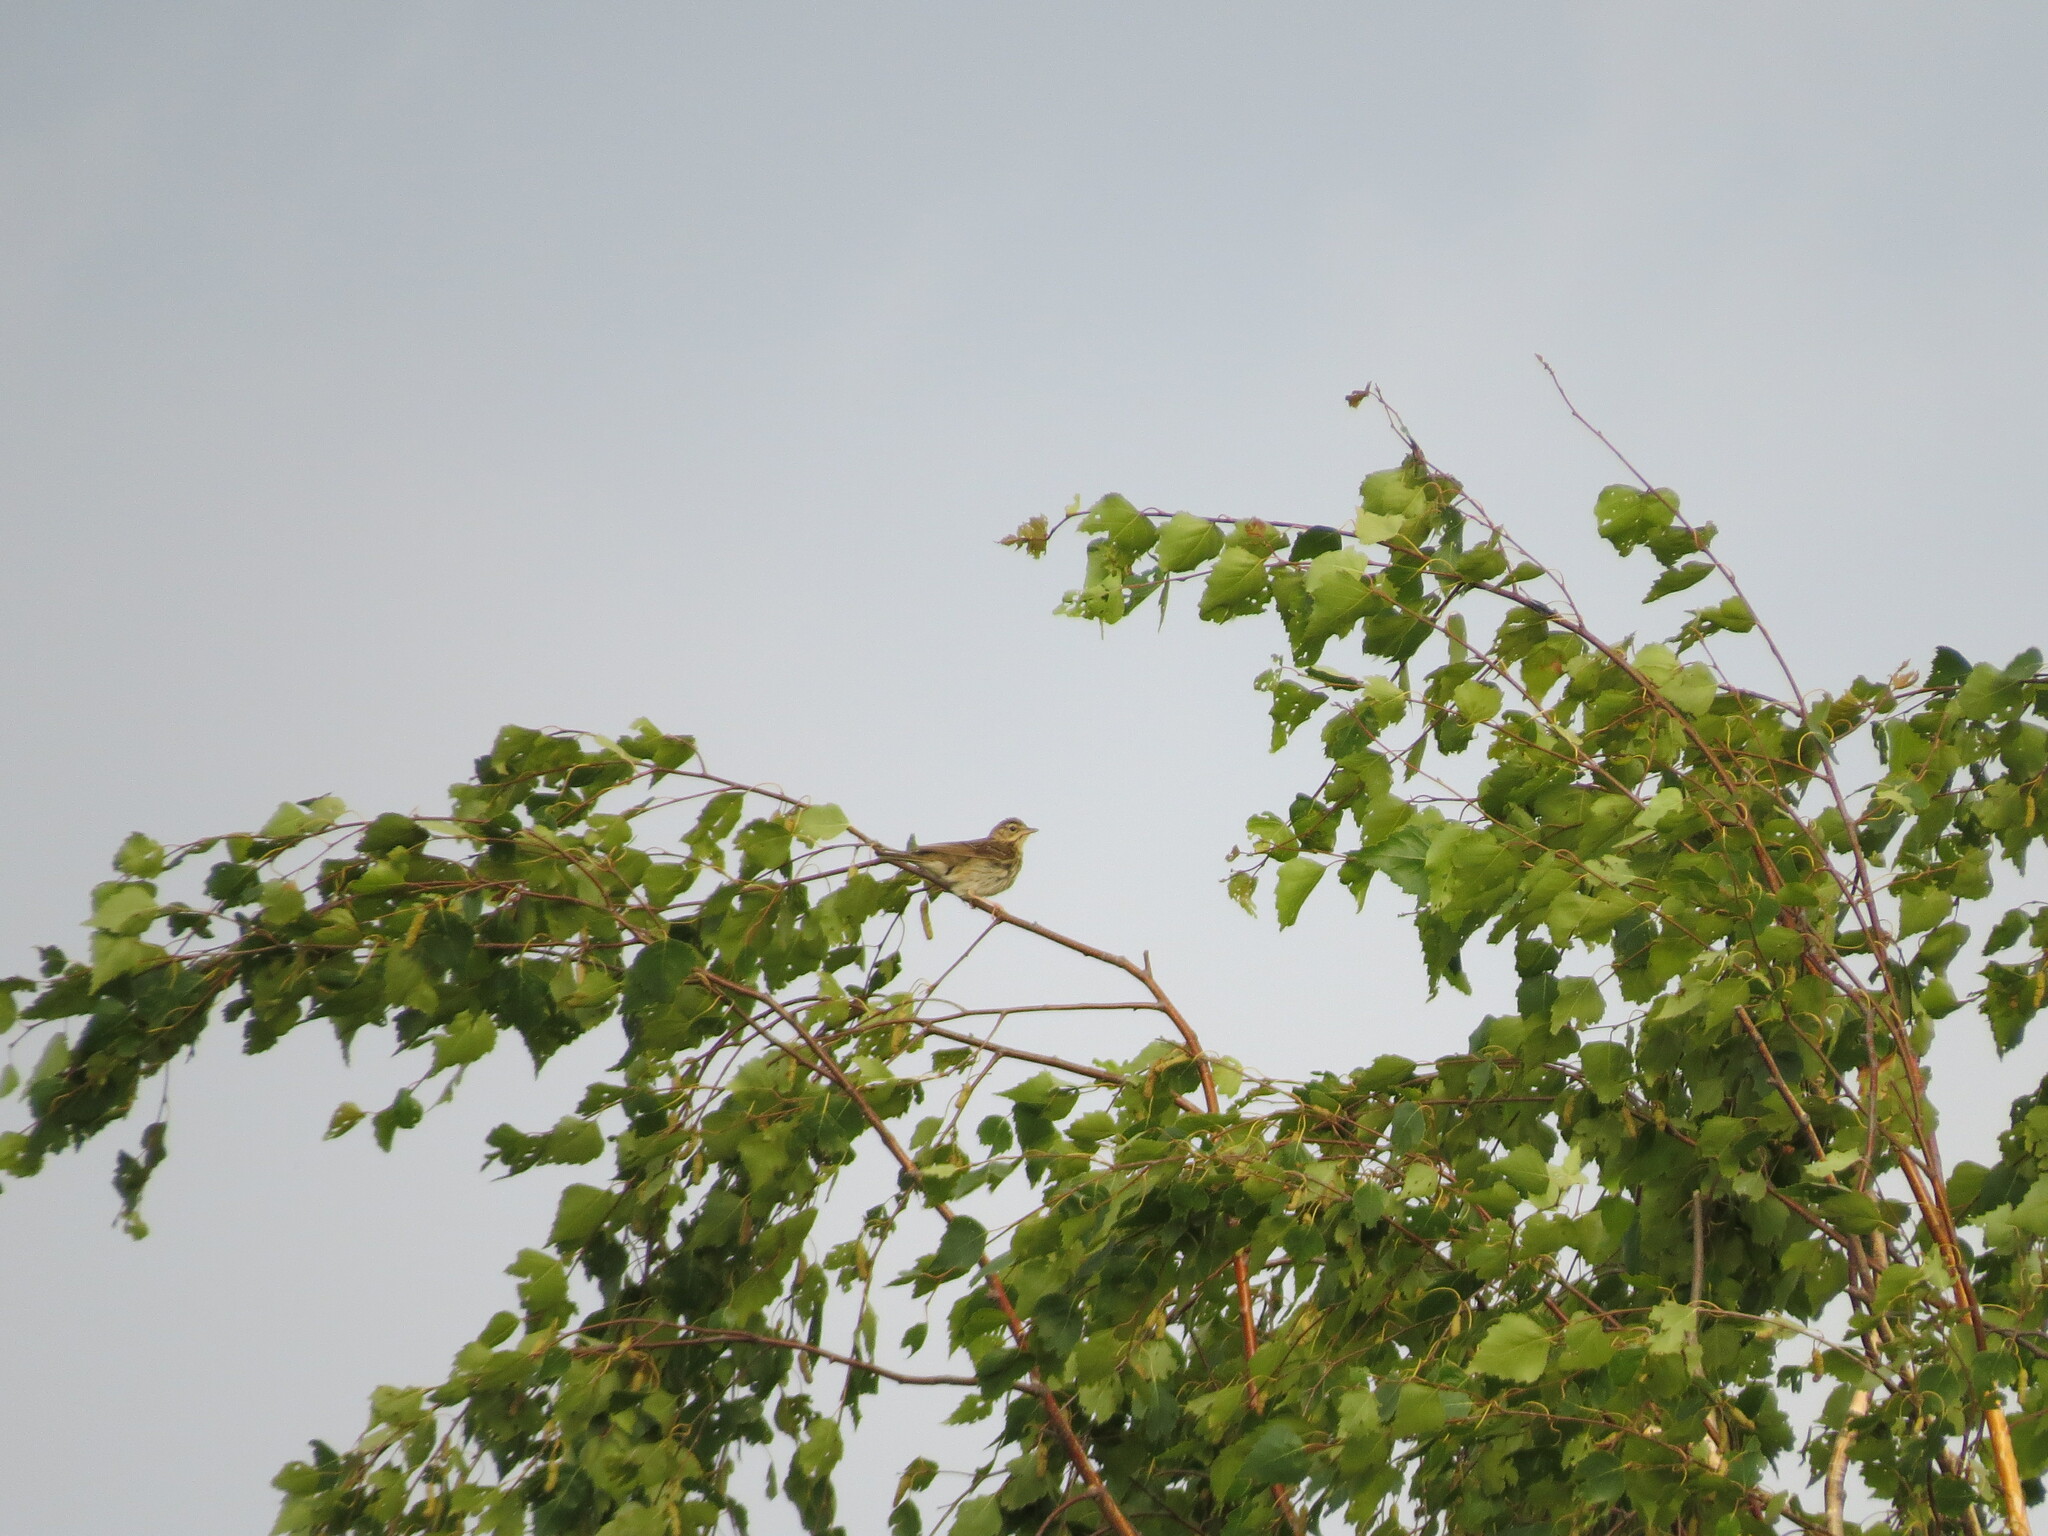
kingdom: Animalia
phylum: Chordata
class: Aves
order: Passeriformes
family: Motacillidae
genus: Anthus
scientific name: Anthus trivialis
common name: Tree pipit
